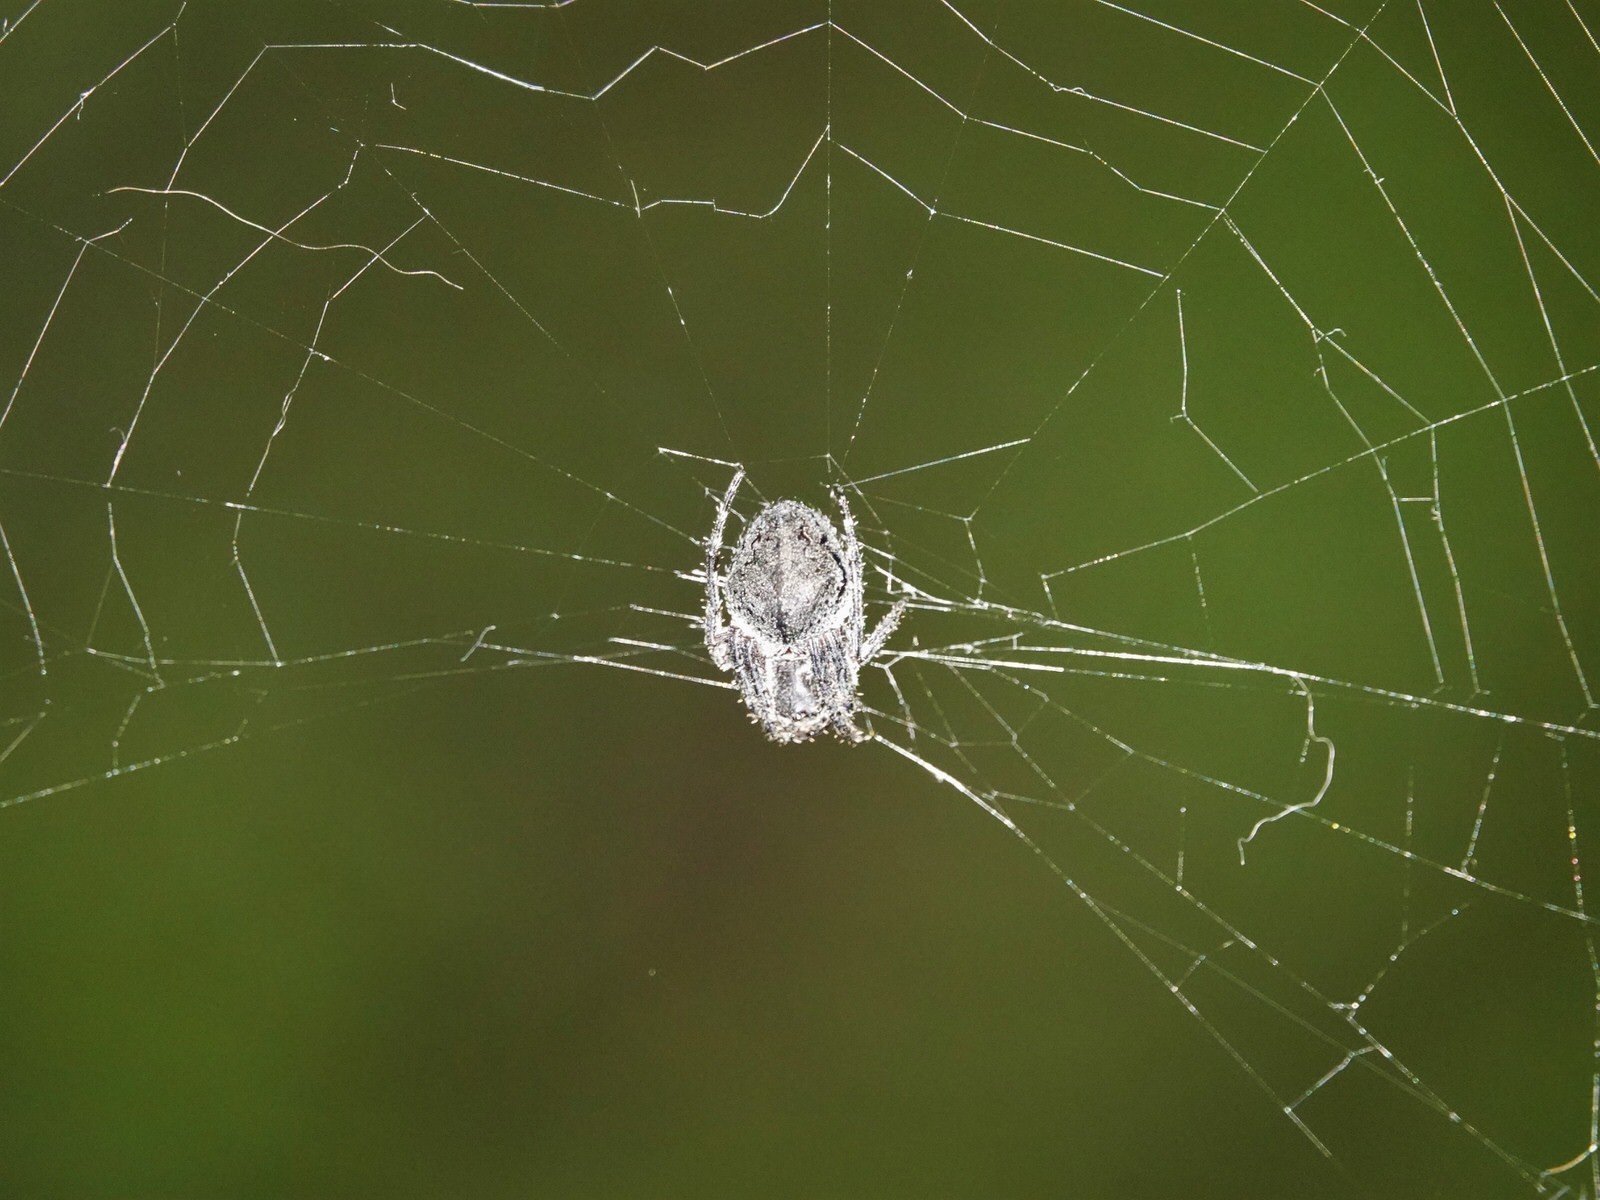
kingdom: Animalia
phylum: Arthropoda
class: Arachnida
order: Araneae
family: Araneidae
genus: Eriophora
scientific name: Eriophora pustulosa
